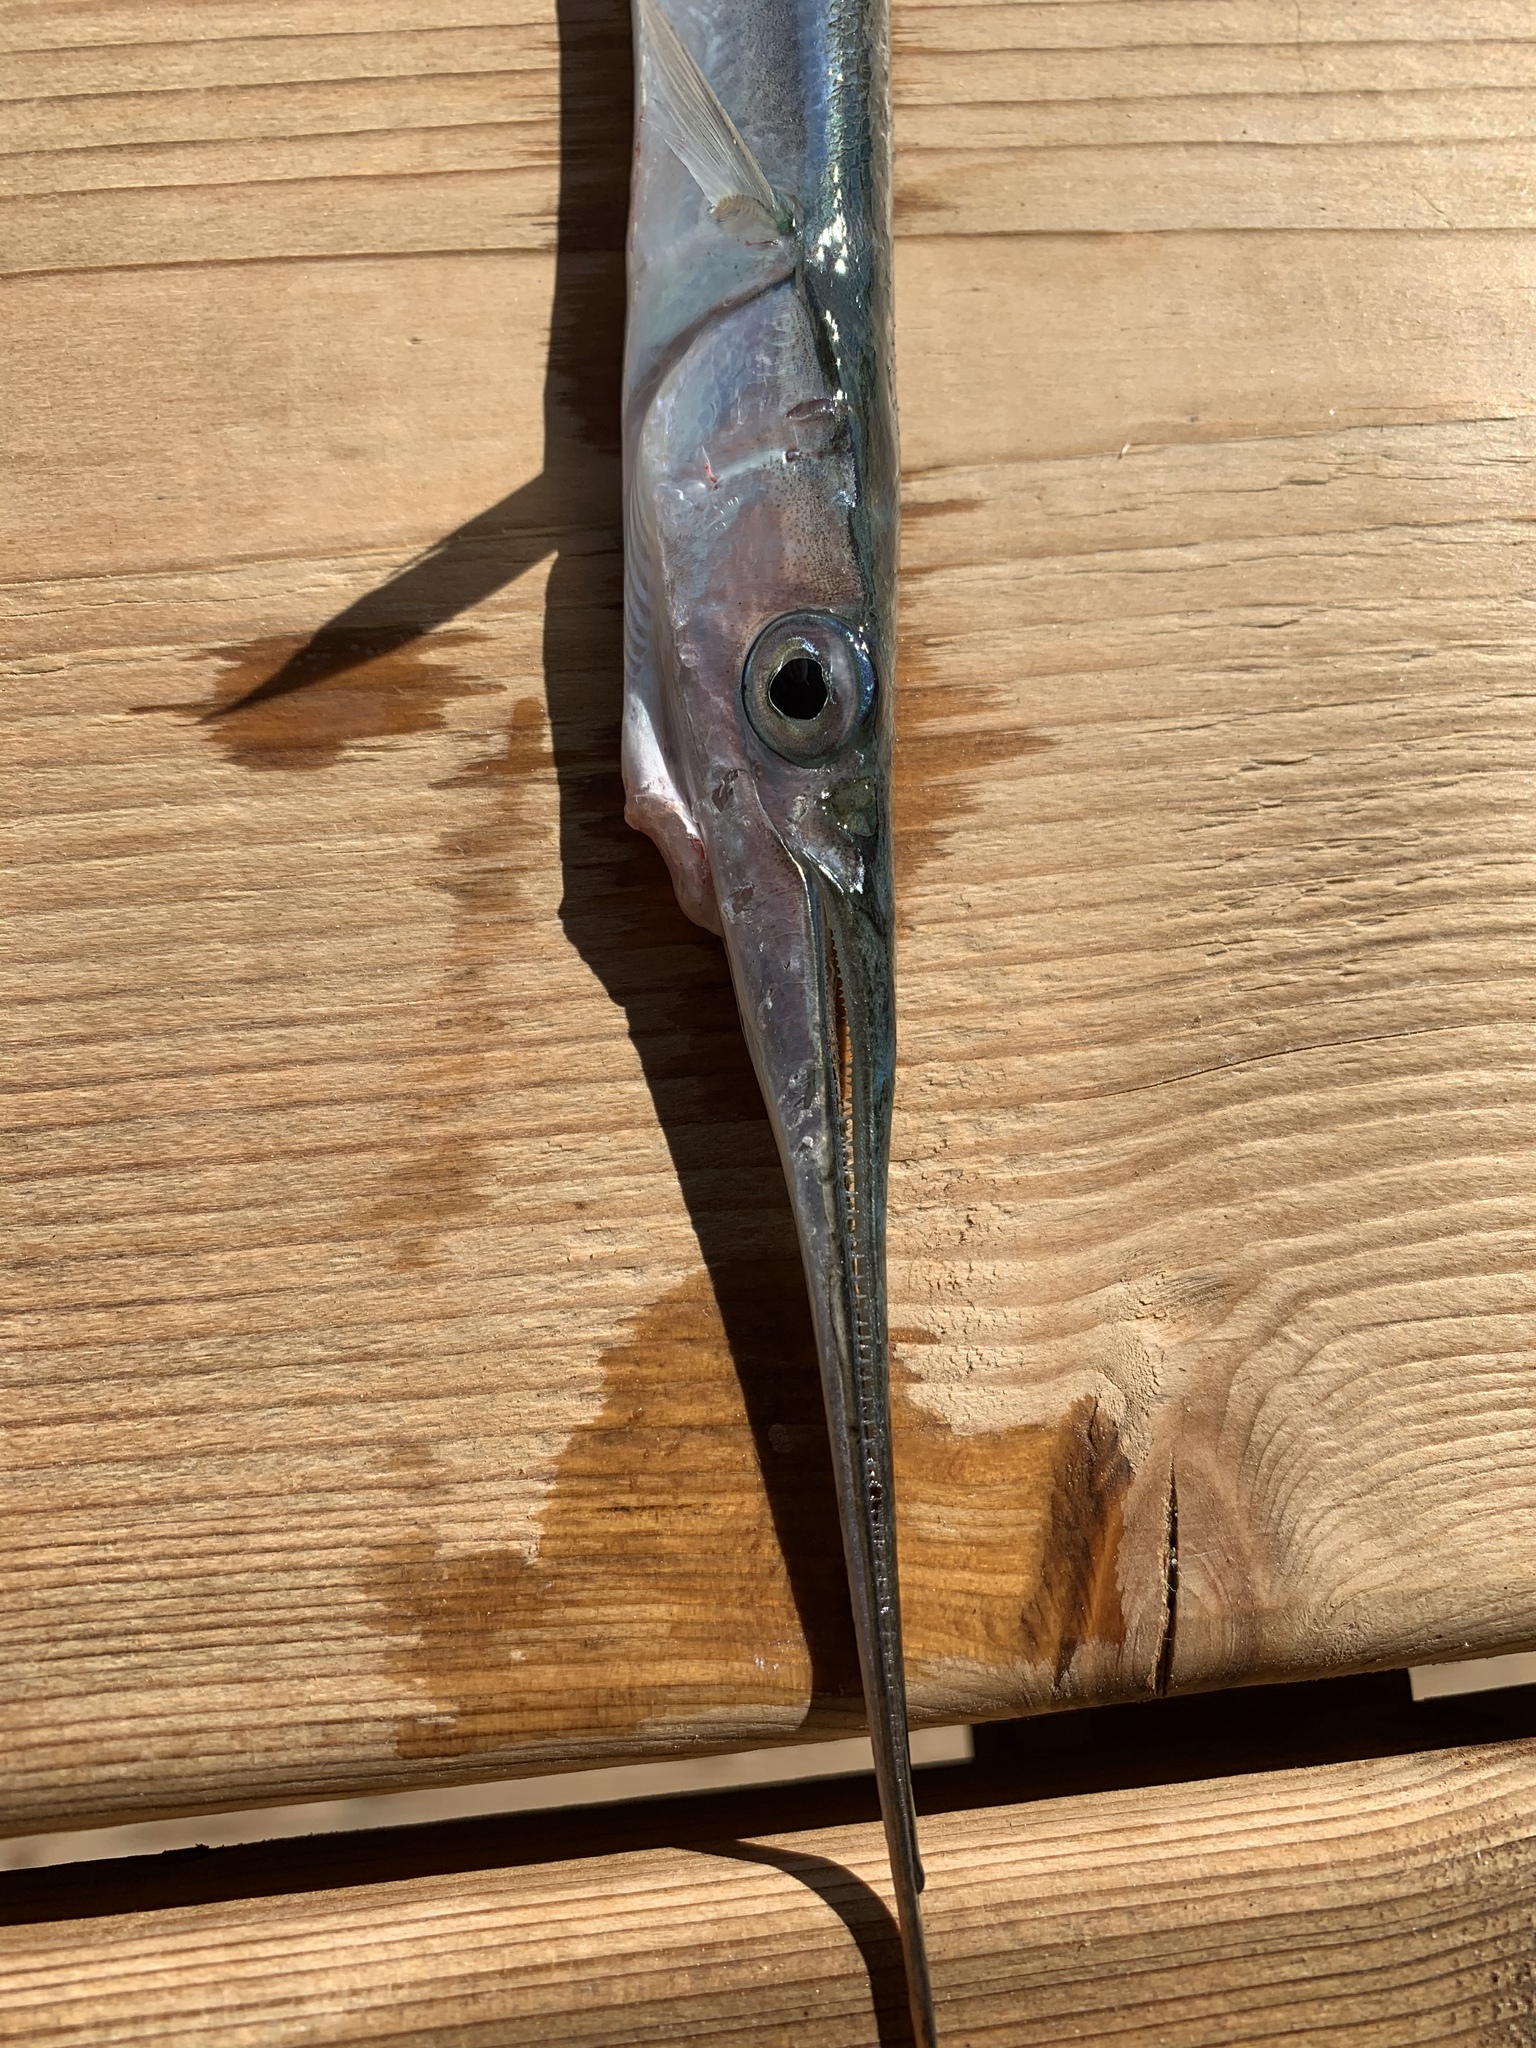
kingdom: Animalia
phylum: Chordata
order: Beloniformes
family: Belonidae
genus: Belone
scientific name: Belone belone
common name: Garfish
